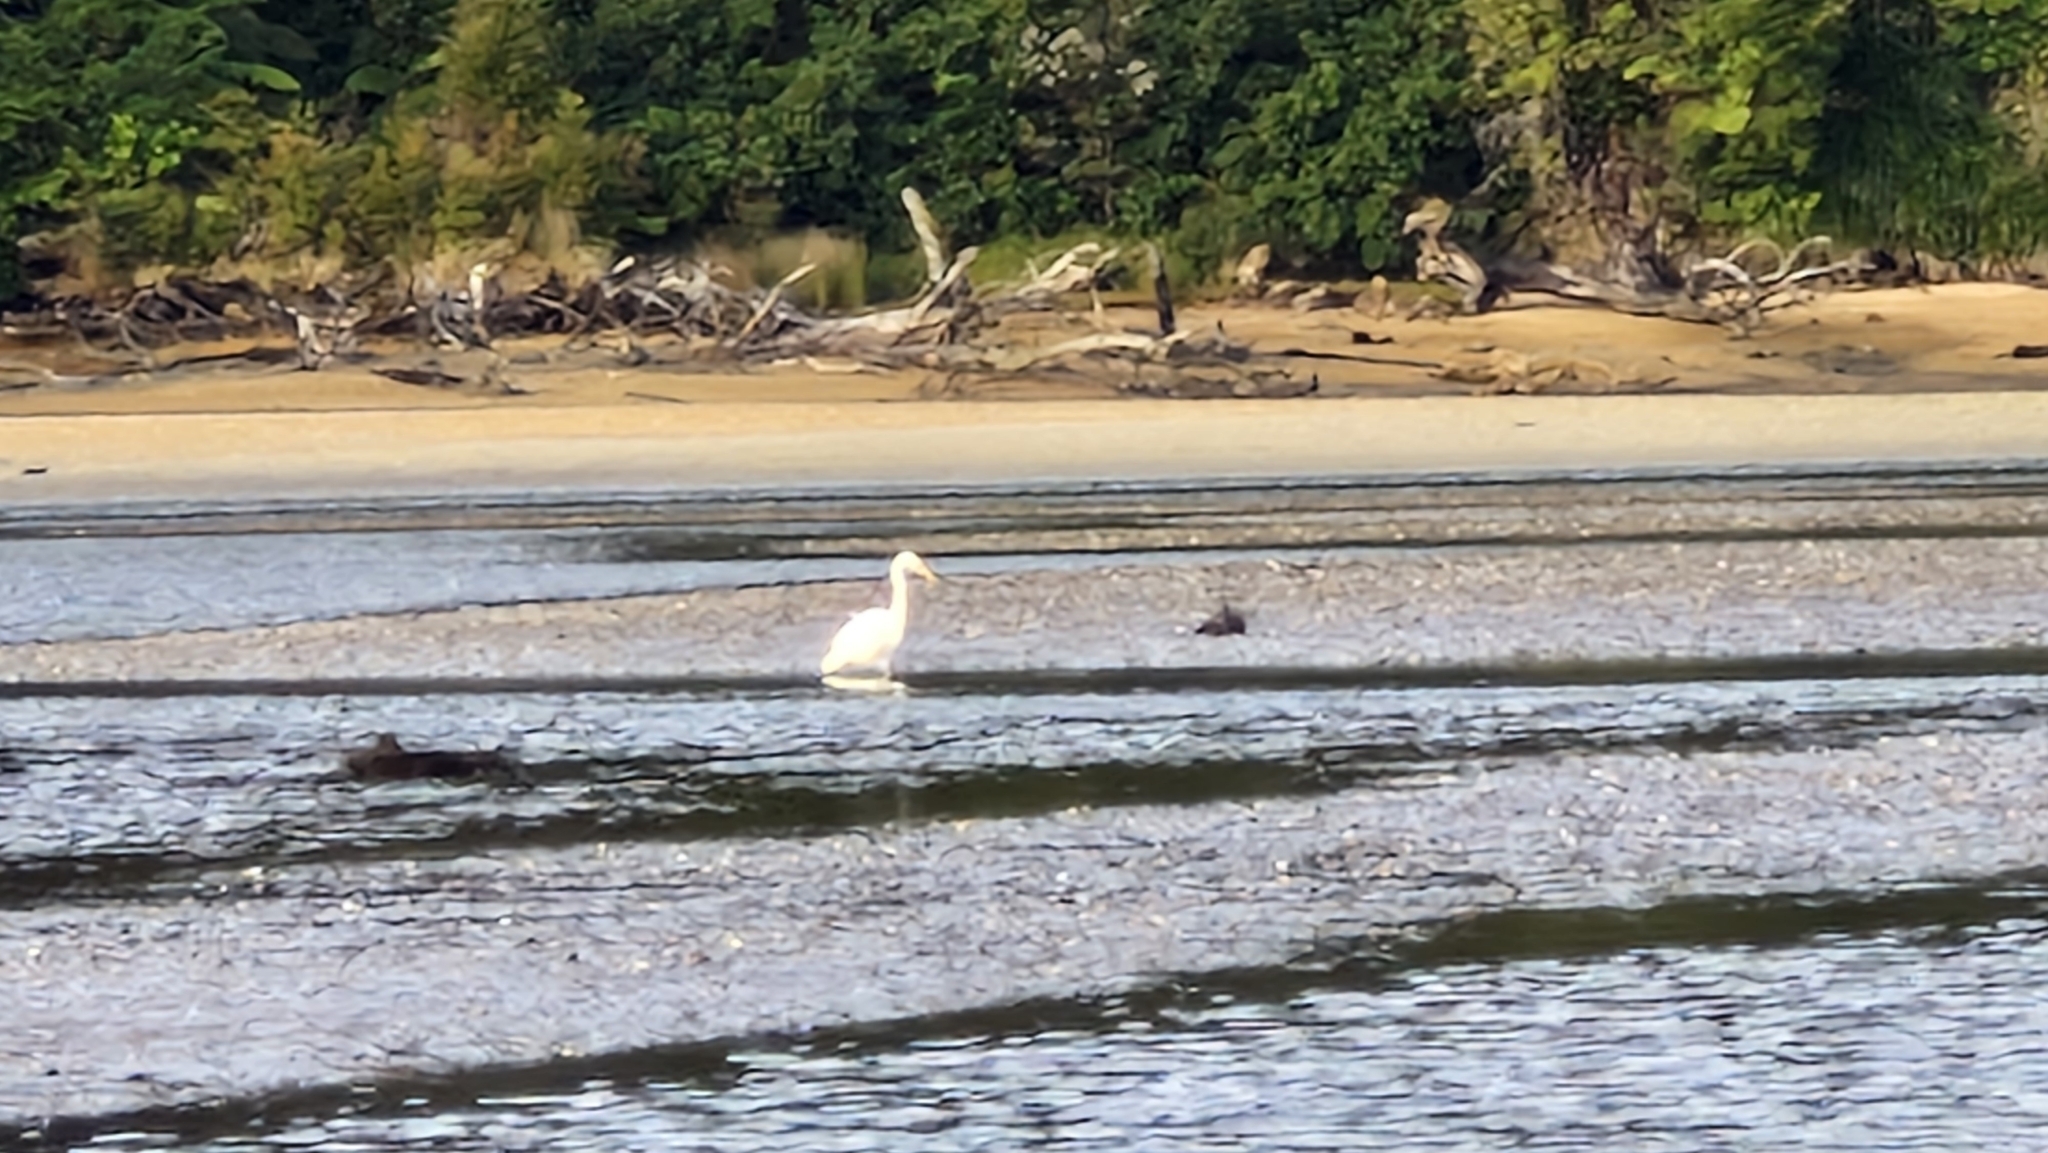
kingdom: Animalia
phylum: Chordata
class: Aves
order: Pelecaniformes
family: Ardeidae
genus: Ardea
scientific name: Ardea alba
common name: Great egret
